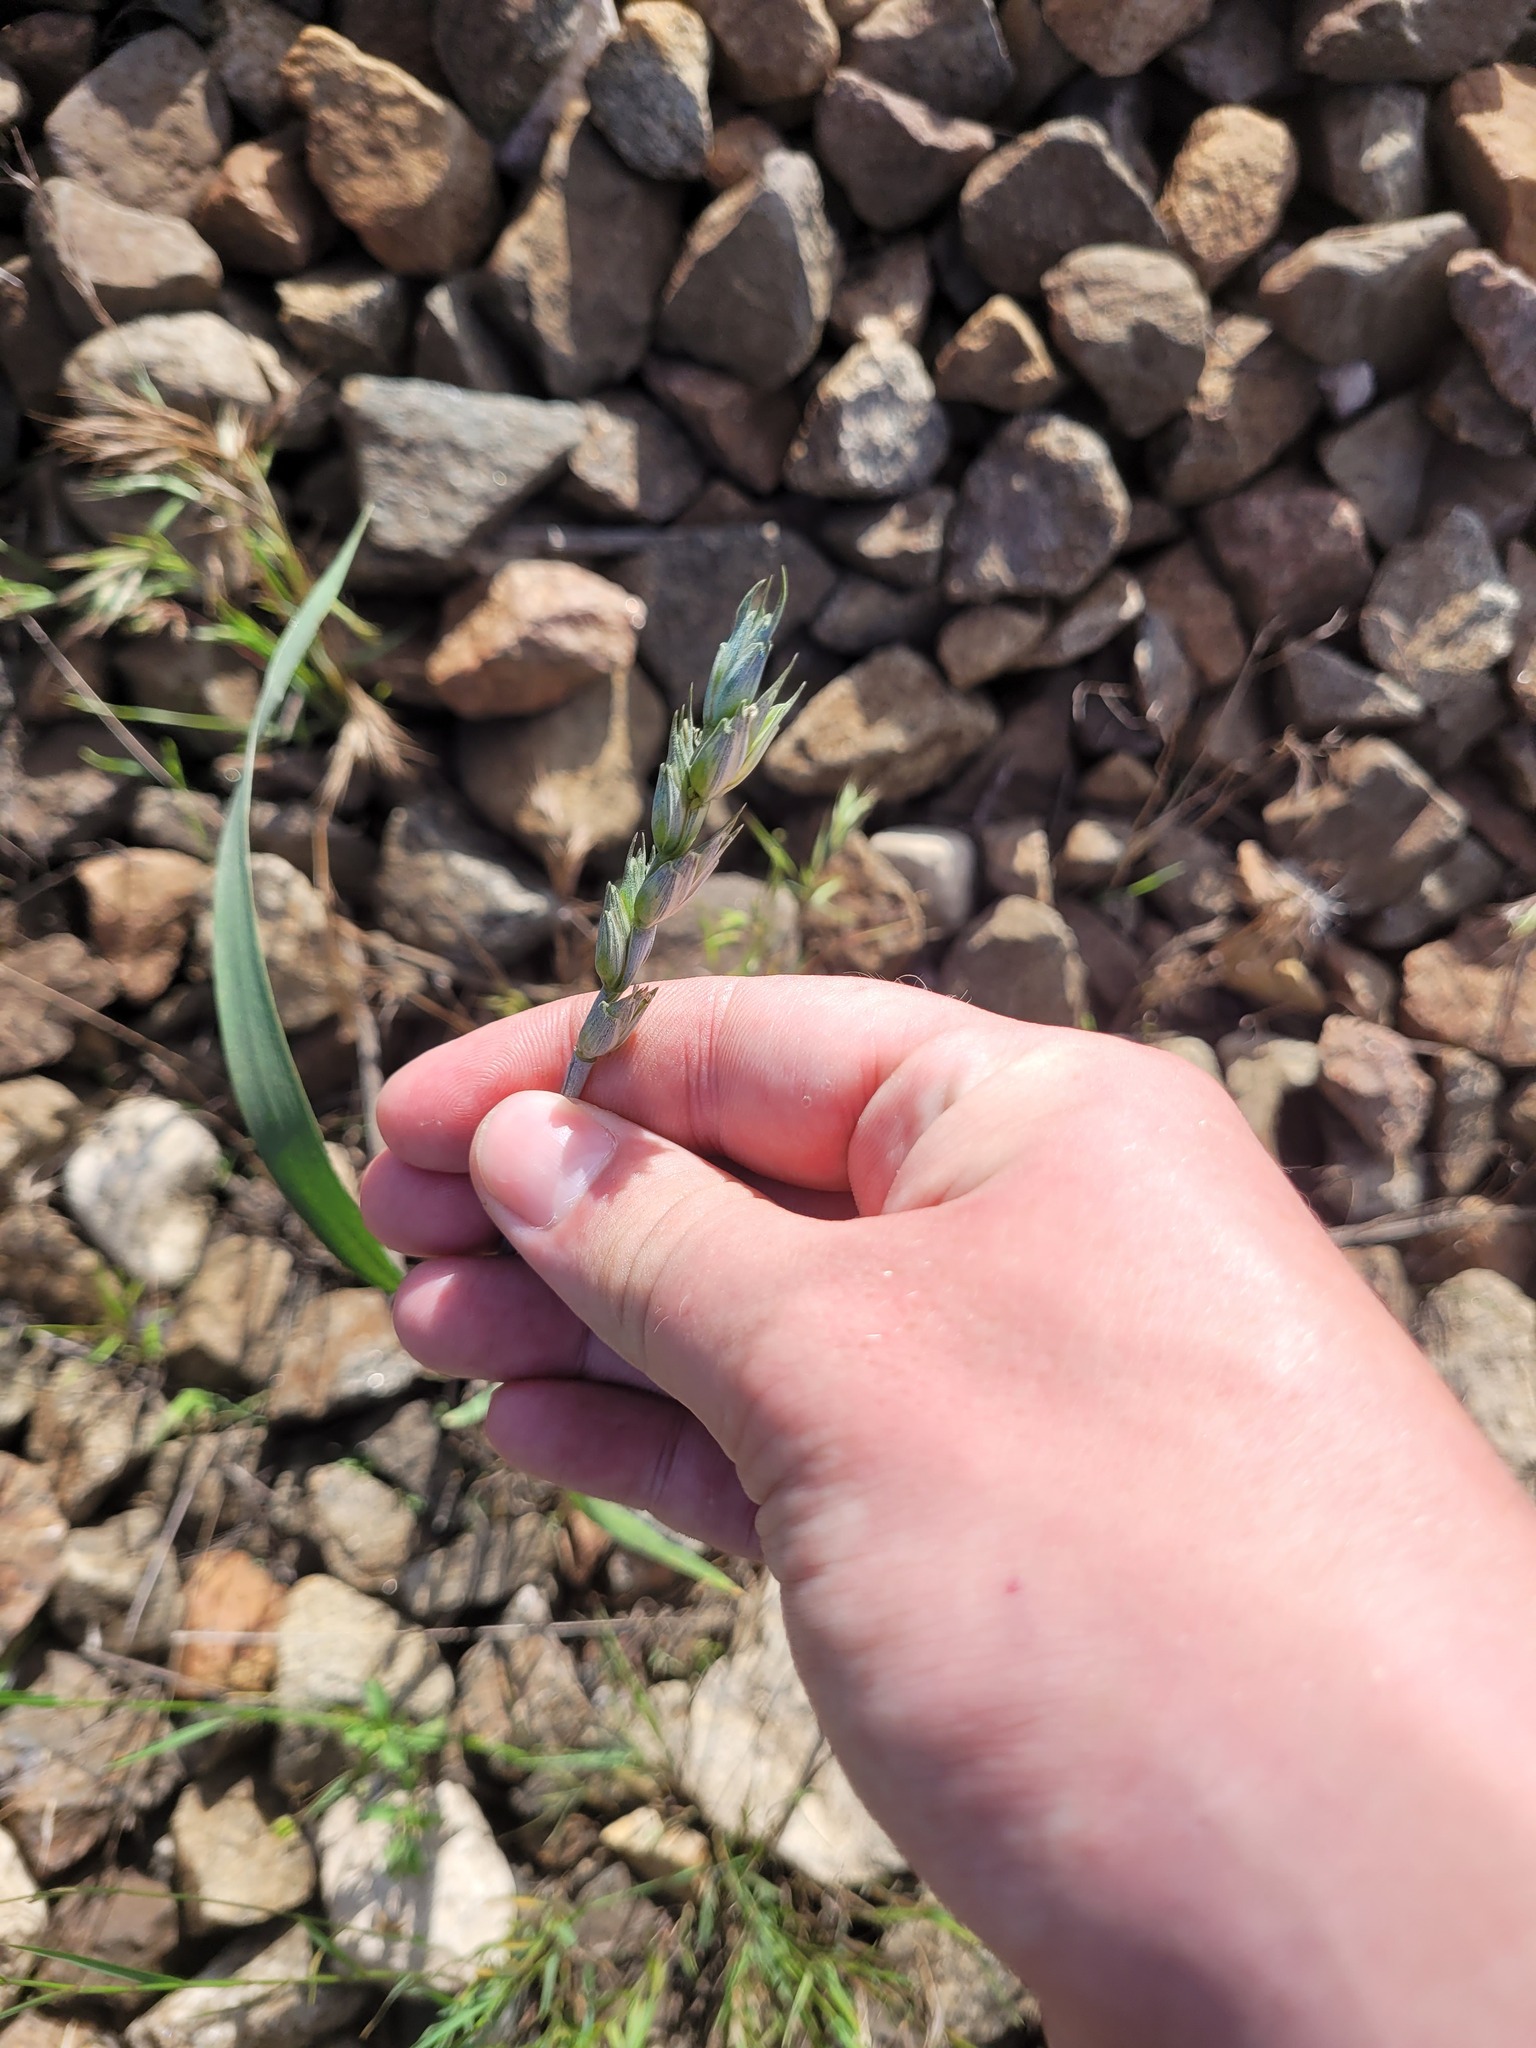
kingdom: Plantae
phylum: Tracheophyta
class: Liliopsida
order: Poales
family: Poaceae
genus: Triticum
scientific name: Triticum aestivum
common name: Common wheat
